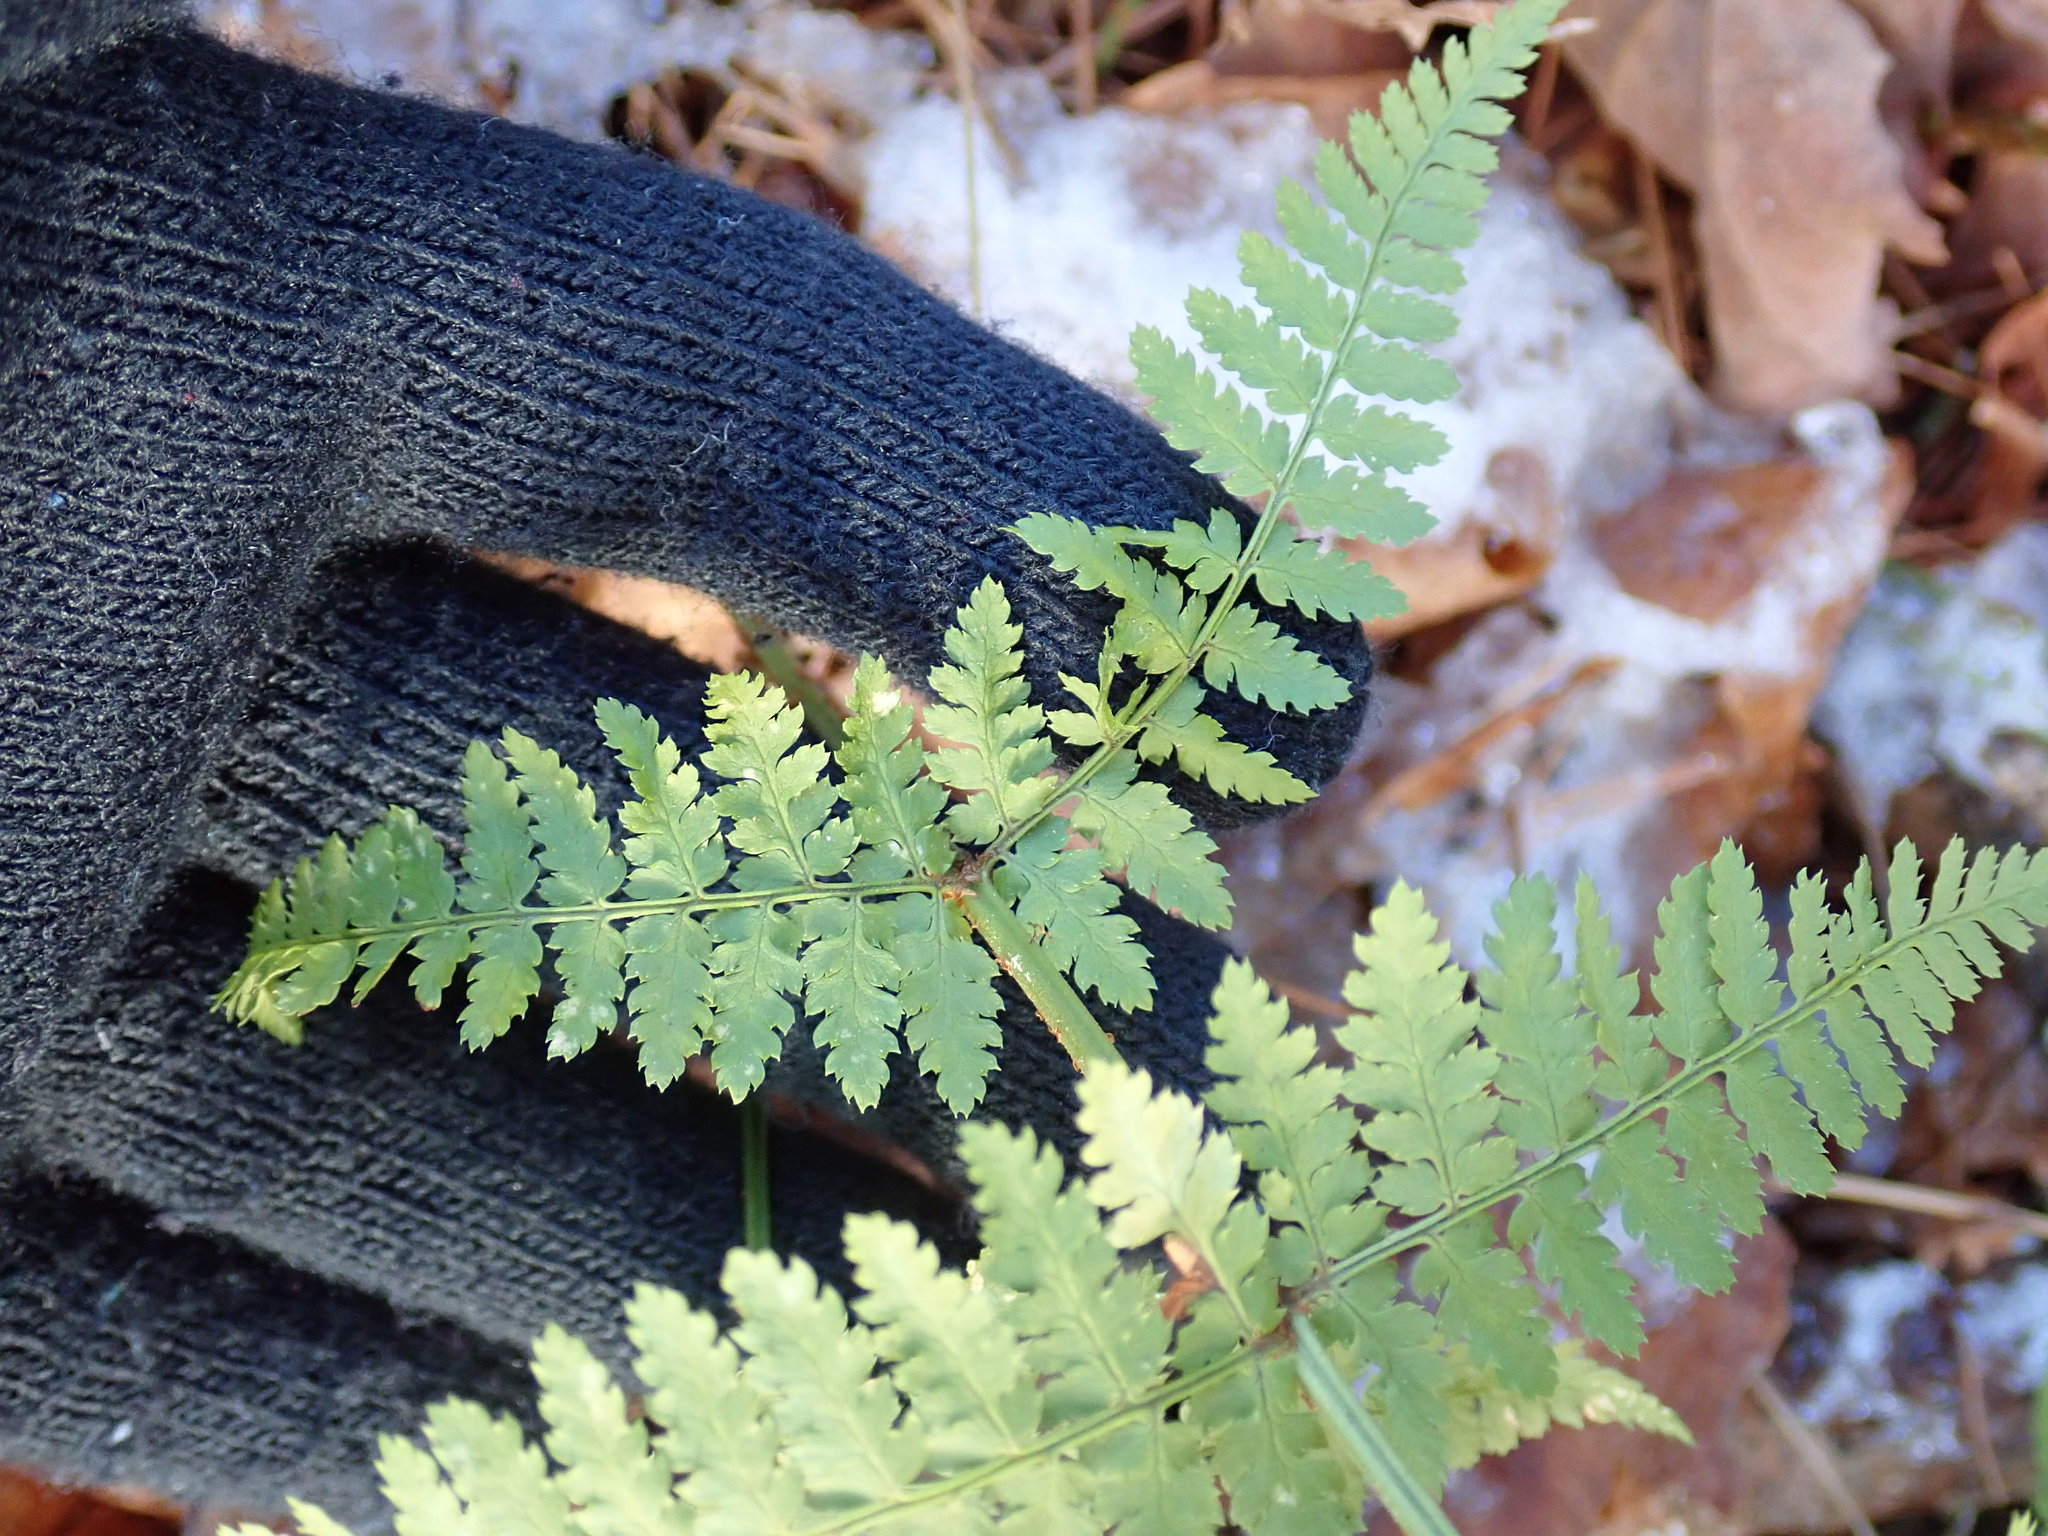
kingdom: Plantae
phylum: Tracheophyta
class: Polypodiopsida
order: Polypodiales
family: Dryopteridaceae
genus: Dryopteris
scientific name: Dryopteris intermedia
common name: Evergreen wood fern
